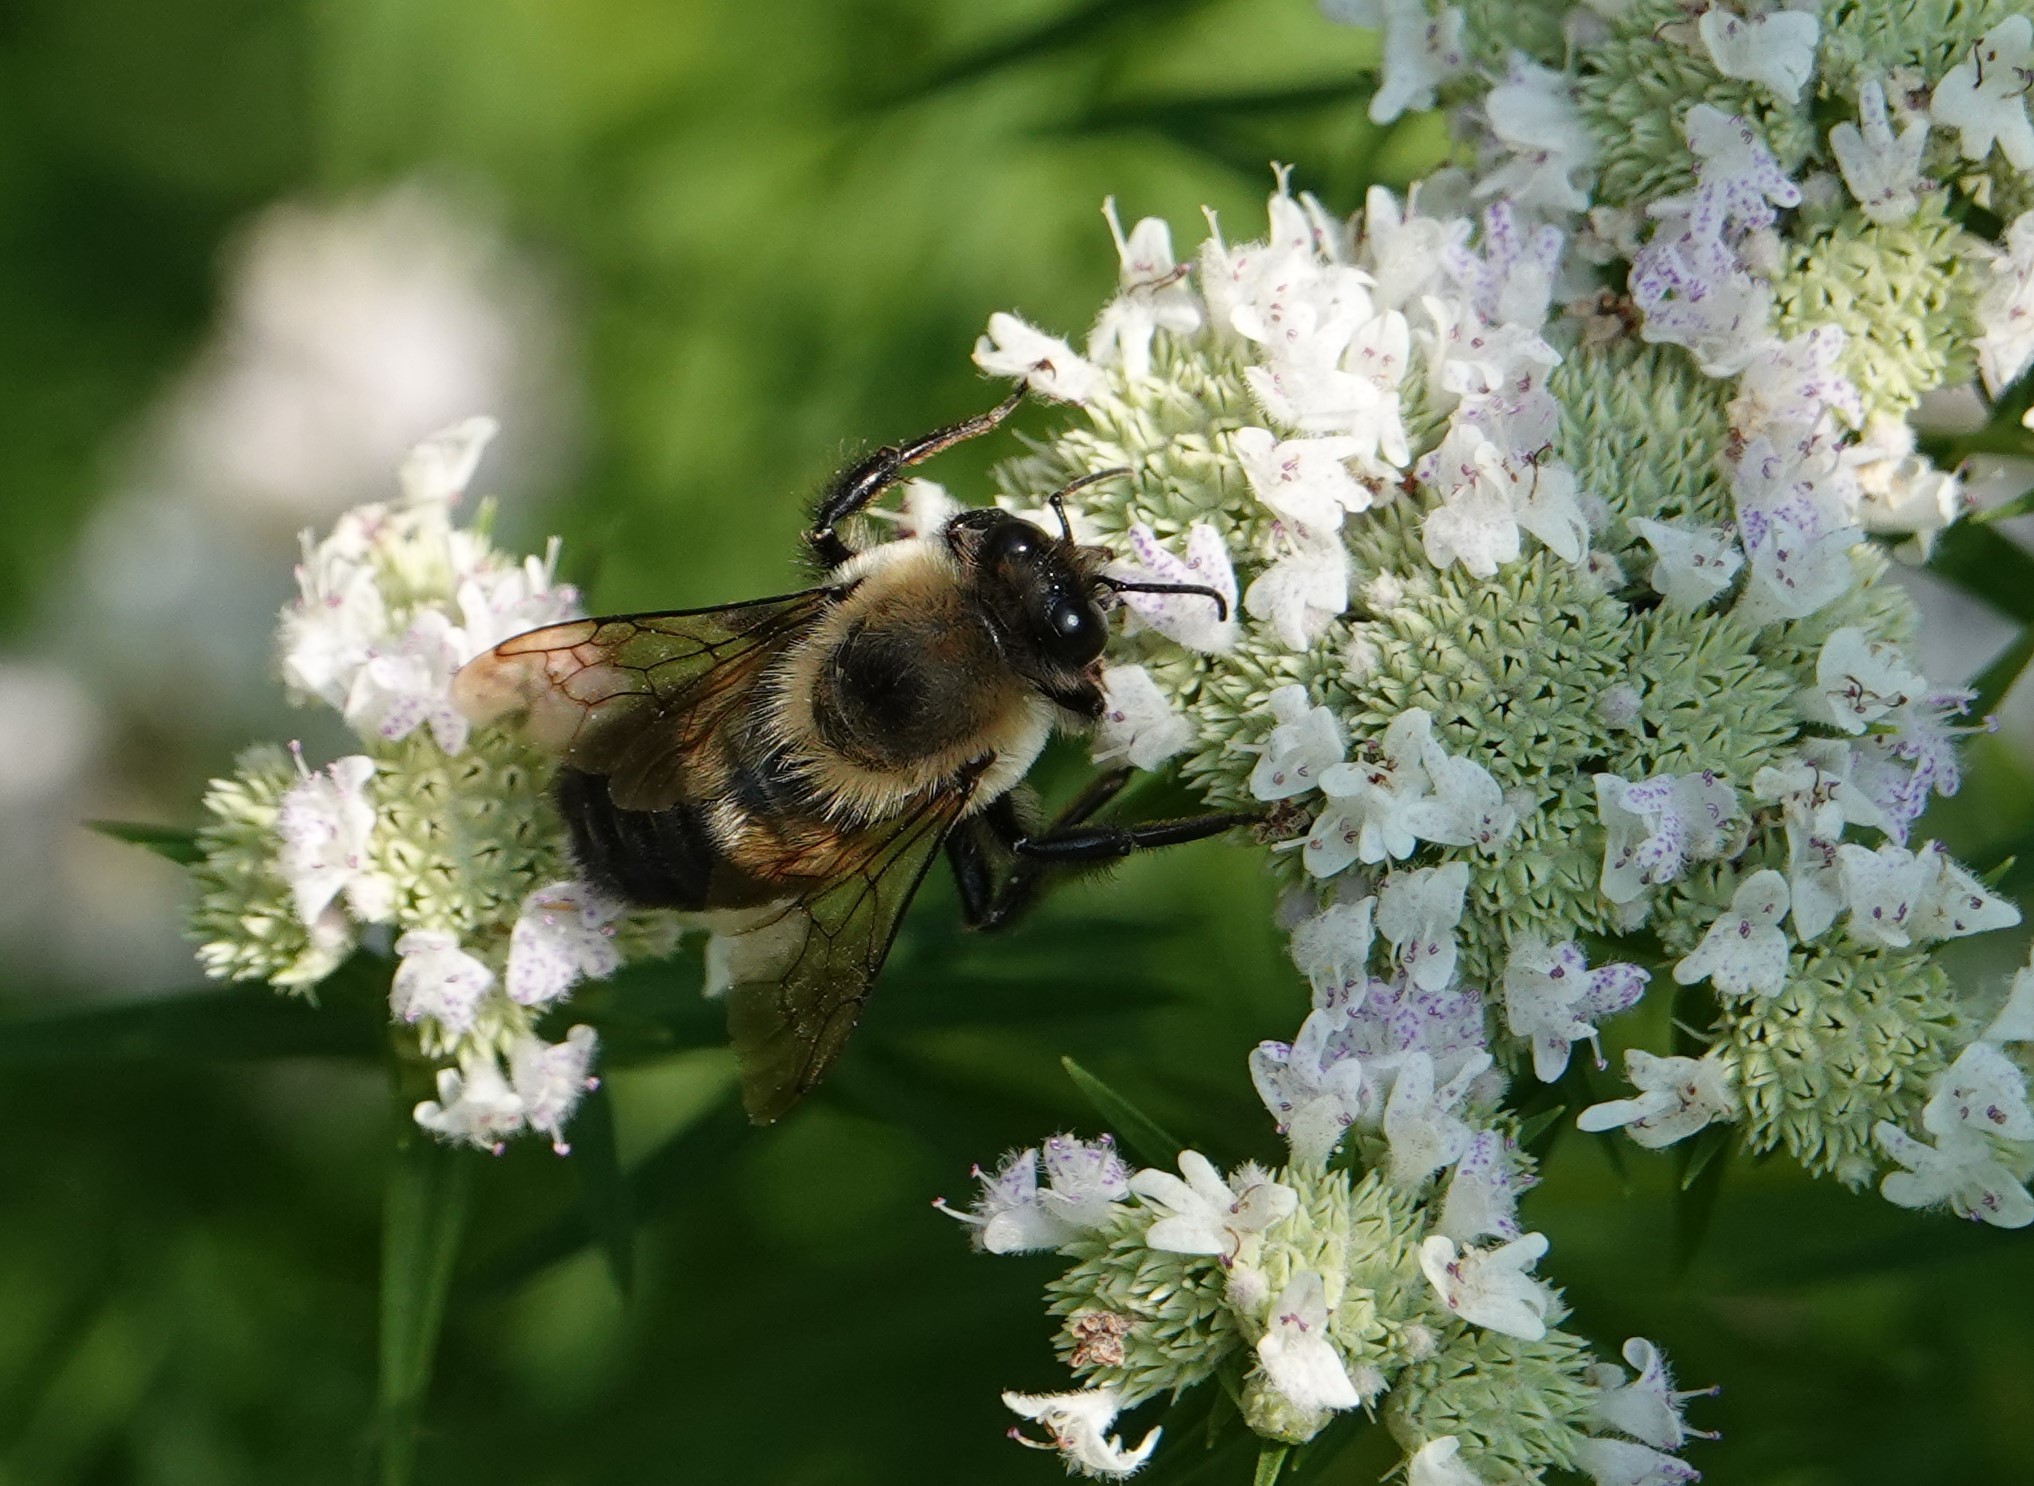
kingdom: Animalia
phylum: Arthropoda
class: Insecta
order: Hymenoptera
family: Apidae
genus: Bombus
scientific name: Bombus griseocollis
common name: Brown-belted bumble bee
